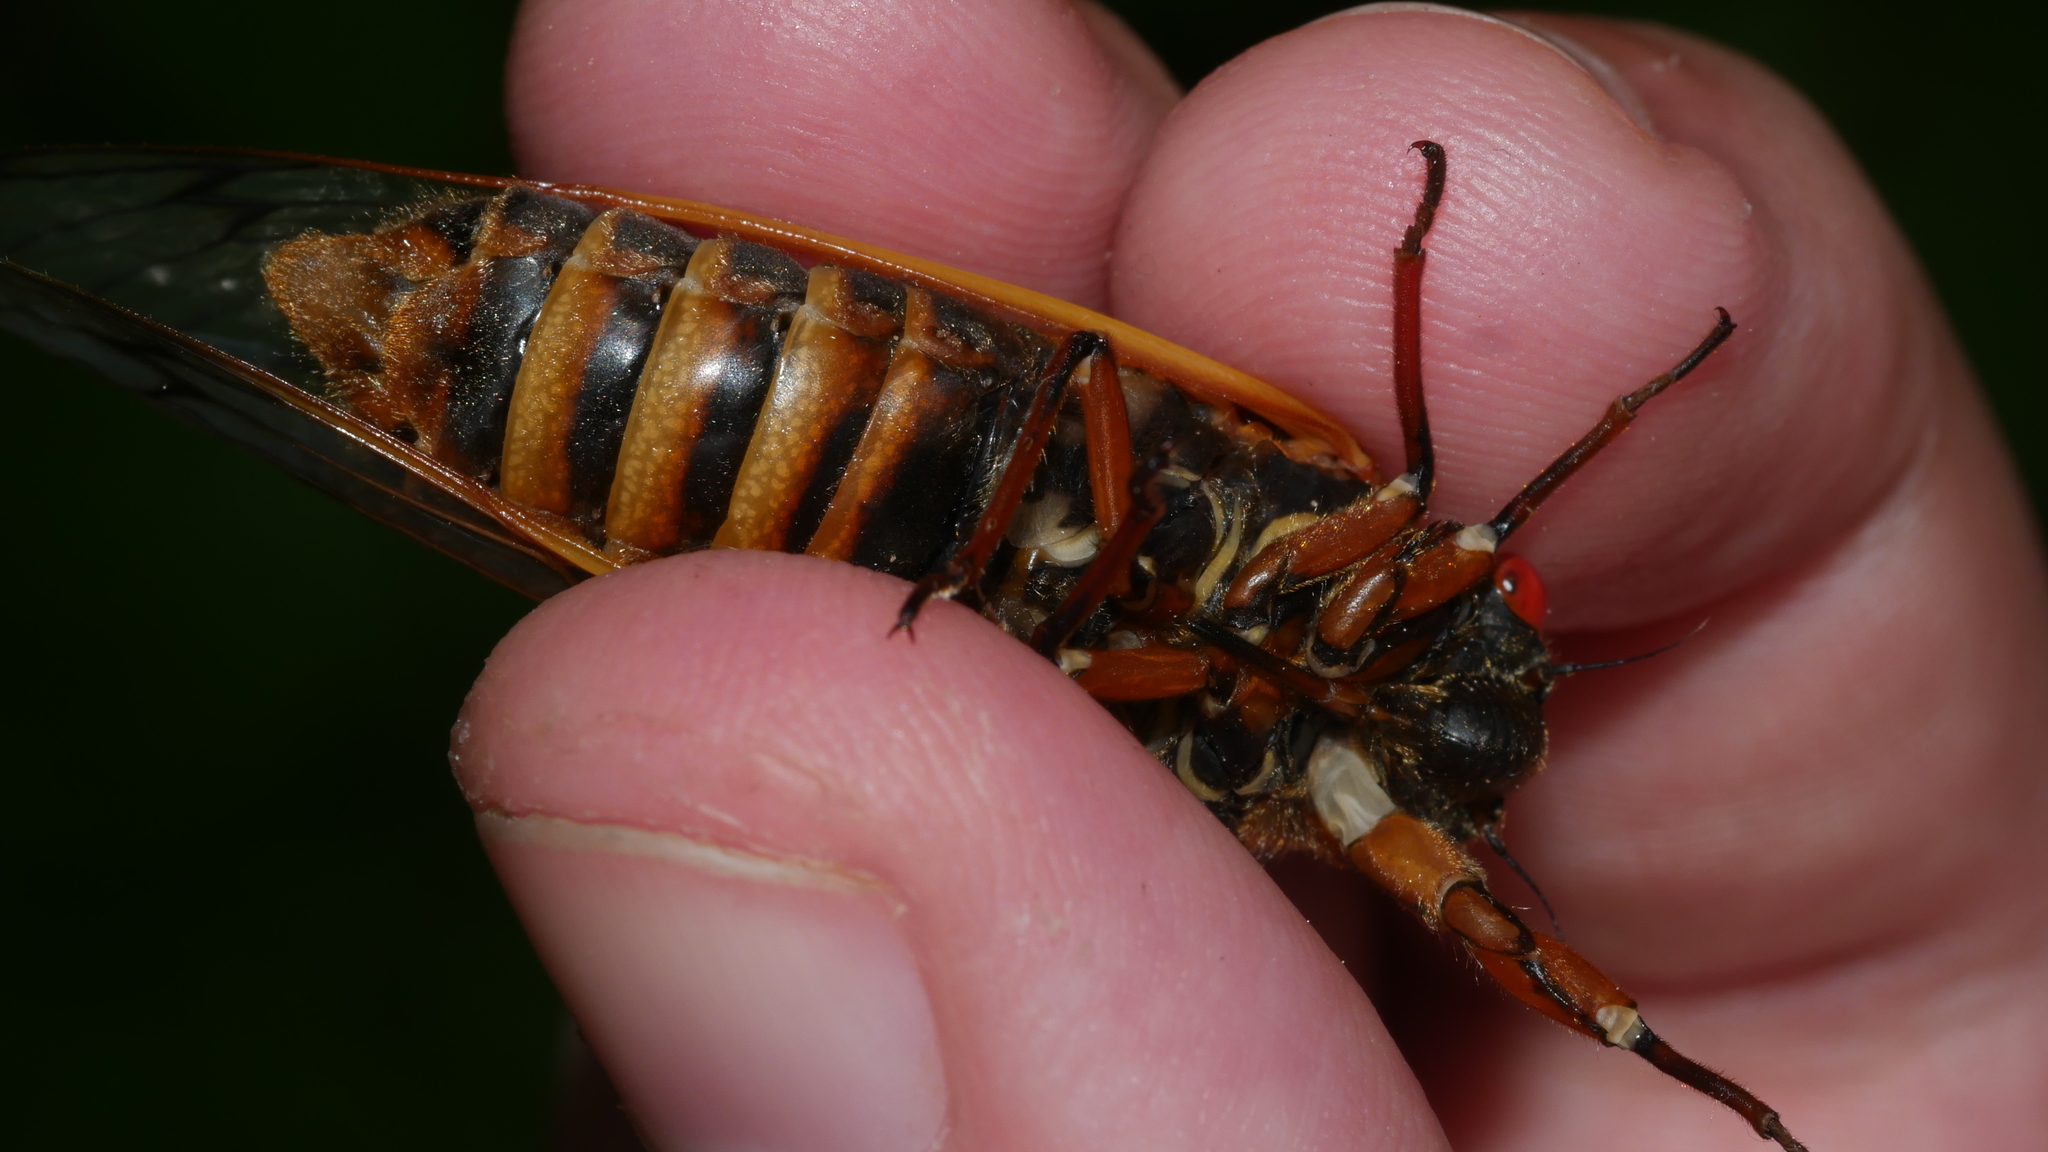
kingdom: Animalia
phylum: Arthropoda
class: Insecta
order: Hemiptera
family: Cicadidae
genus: Magicicada
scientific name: Magicicada septendecim
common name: Periodical cicada
